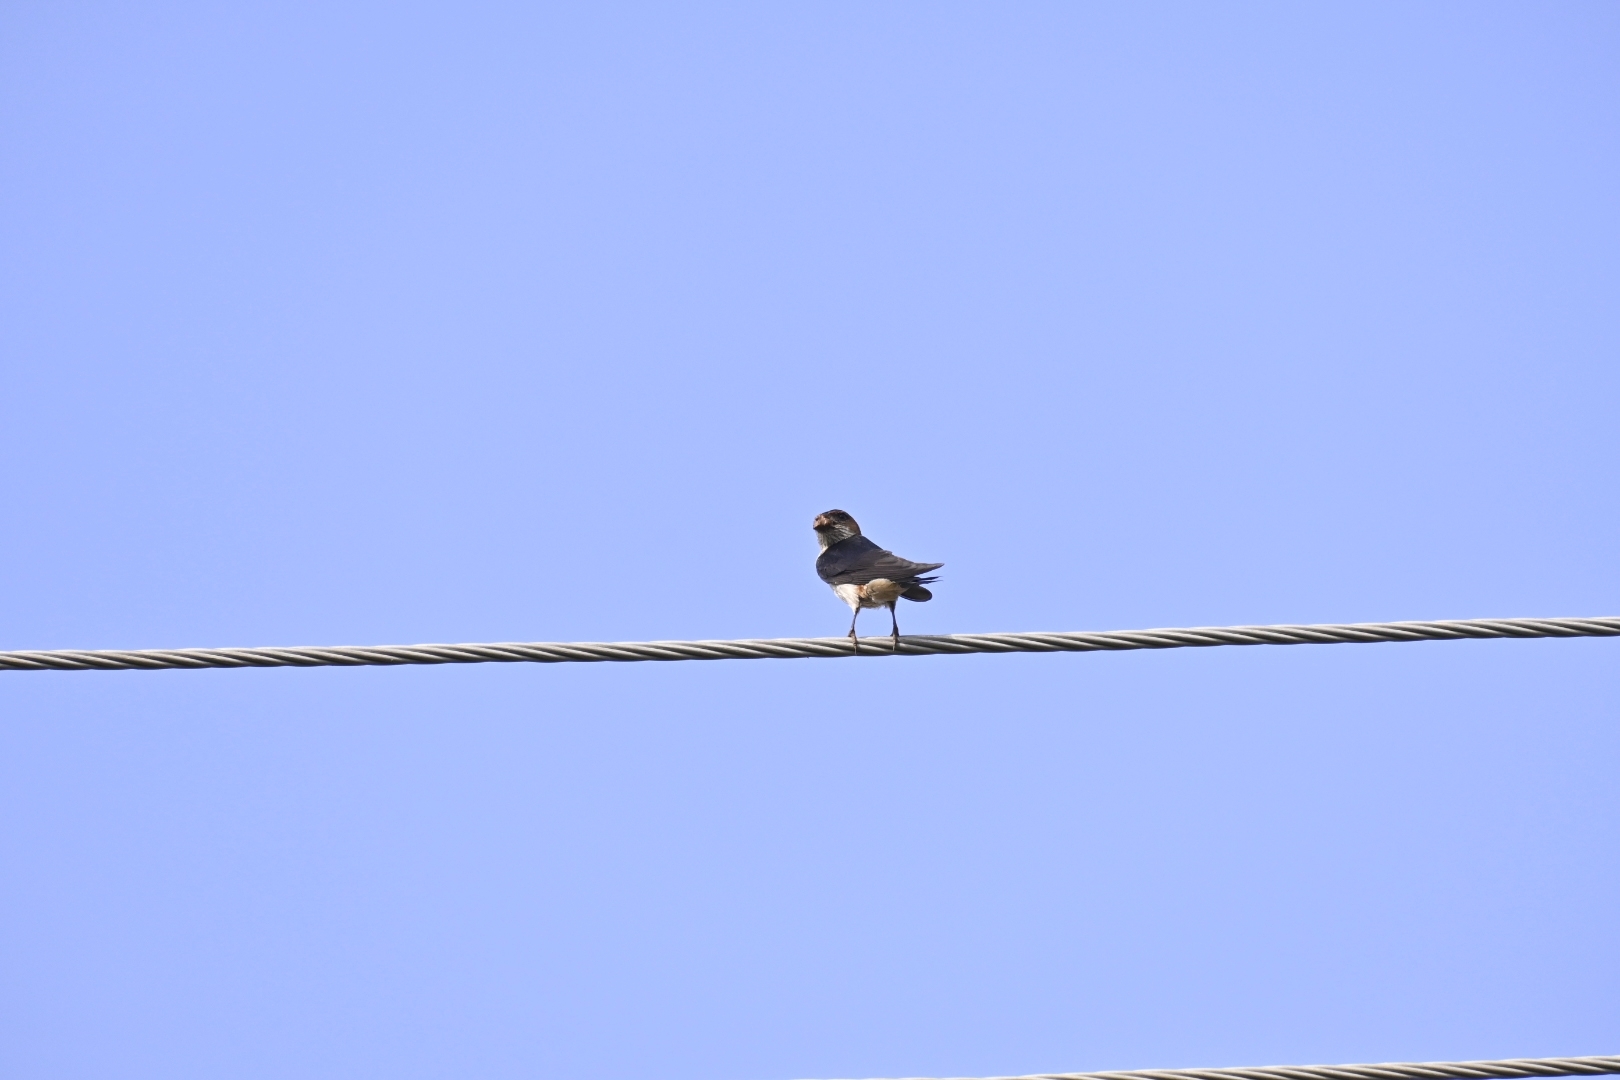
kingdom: Animalia
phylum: Chordata
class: Aves
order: Passeriformes
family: Hirundinidae
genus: Hirundo
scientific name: Hirundo rustica
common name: Barn swallow
